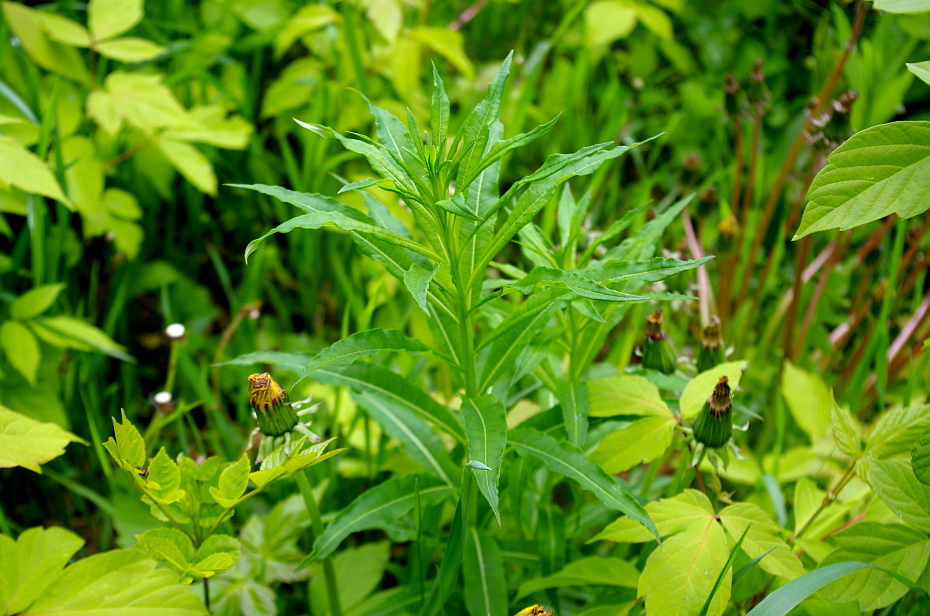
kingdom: Plantae
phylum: Tracheophyta
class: Magnoliopsida
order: Myrtales
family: Onagraceae
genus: Chamaenerion
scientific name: Chamaenerion angustifolium
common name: Fireweed
